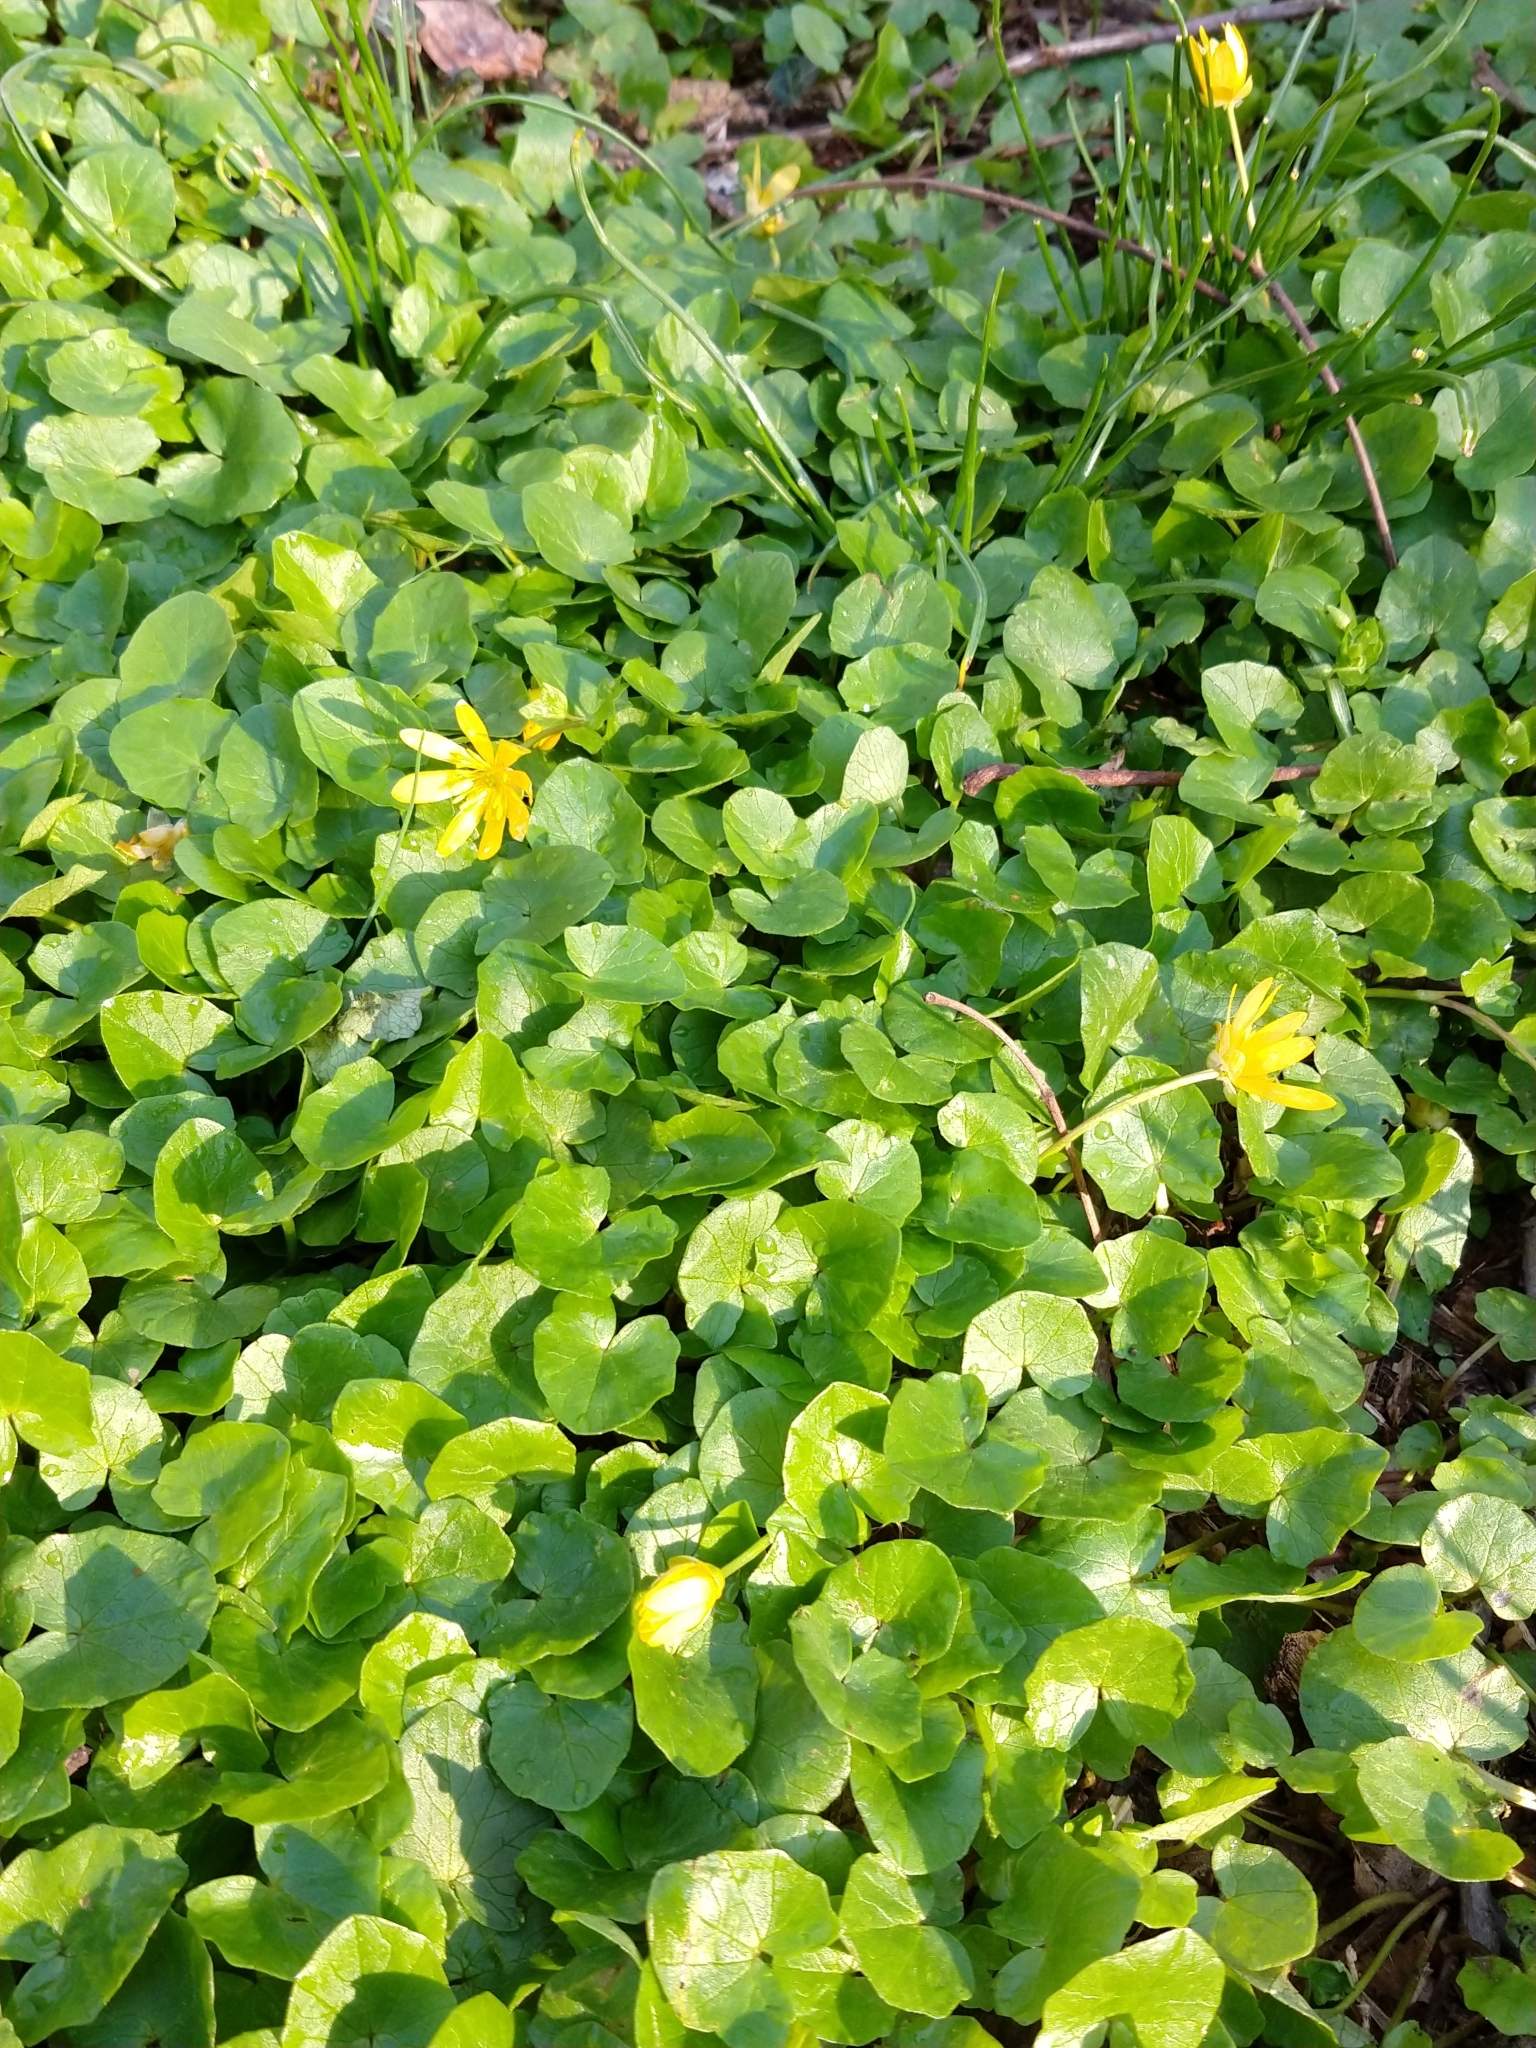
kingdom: Plantae
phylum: Tracheophyta
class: Magnoliopsida
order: Ranunculales
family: Ranunculaceae
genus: Ficaria
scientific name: Ficaria verna
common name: Lesser celandine
